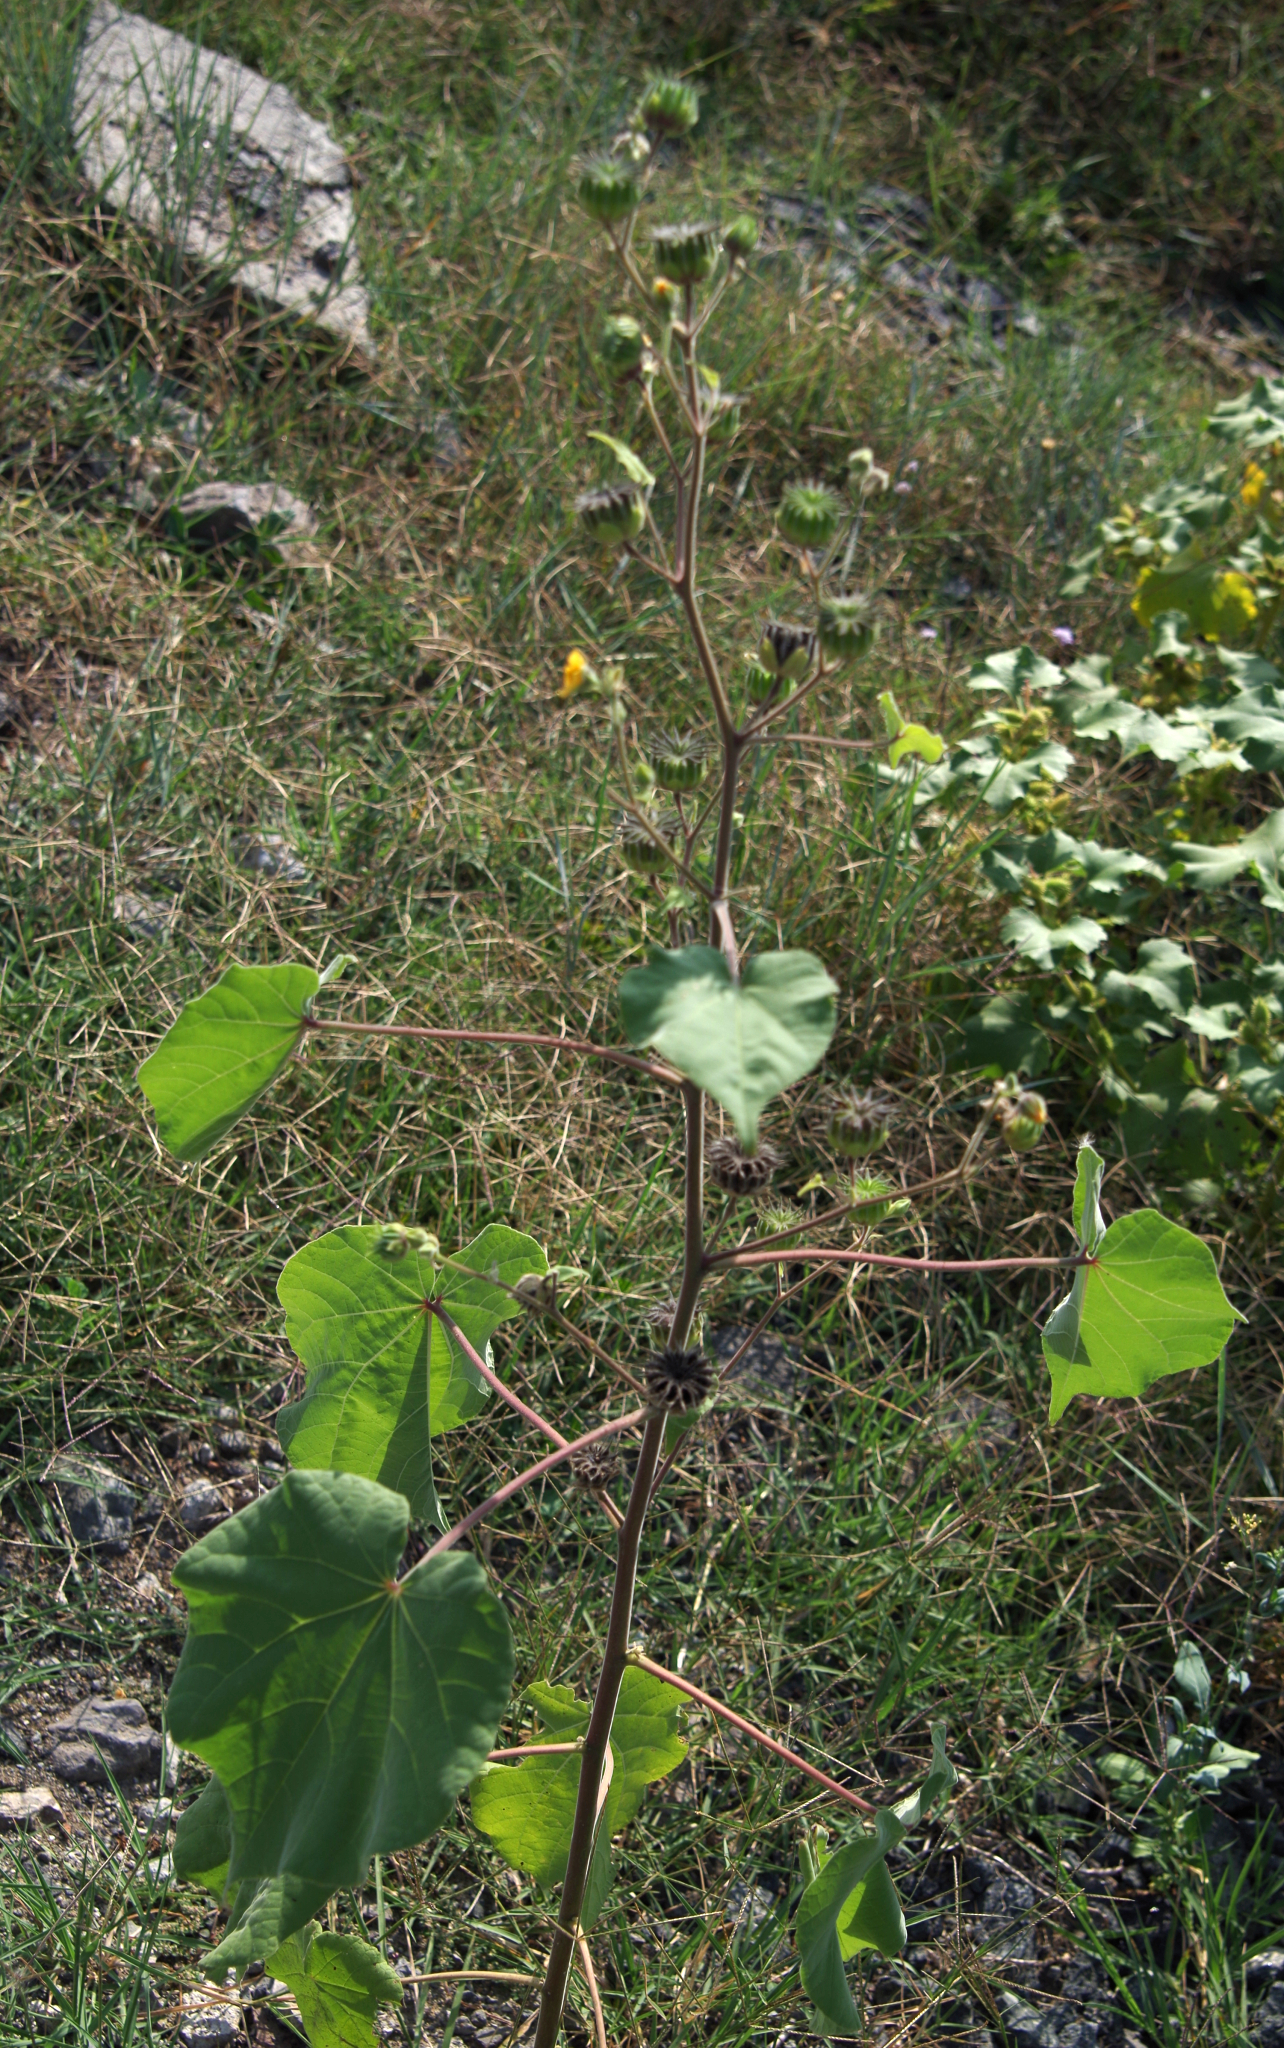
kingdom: Plantae
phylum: Tracheophyta
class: Magnoliopsida
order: Malvales
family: Malvaceae
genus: Abutilon
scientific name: Abutilon theophrasti
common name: Velvetleaf
